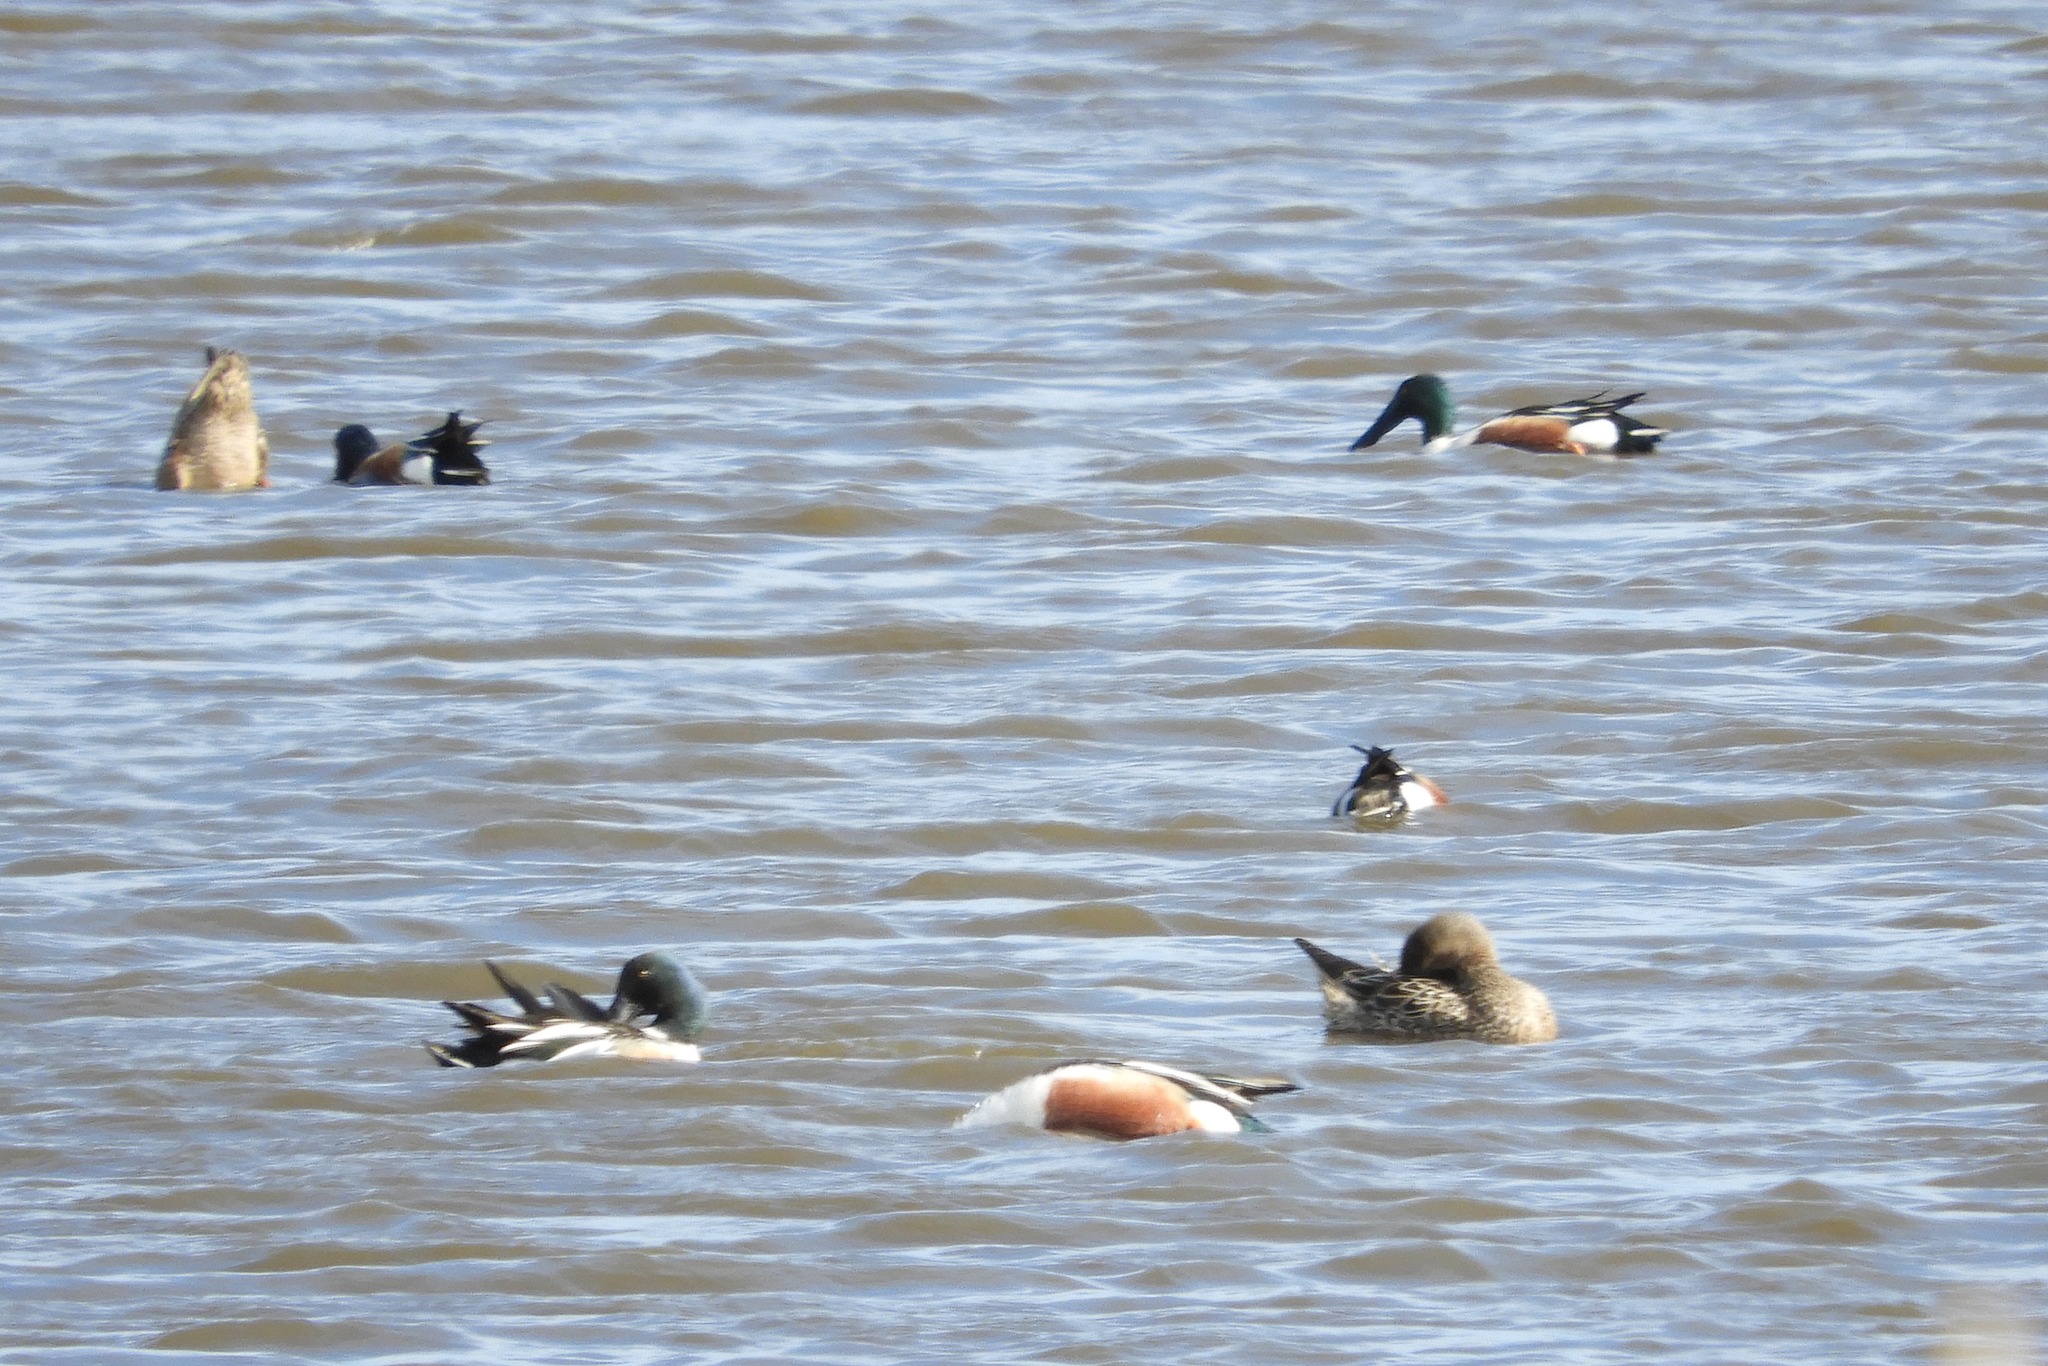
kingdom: Animalia
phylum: Chordata
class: Aves
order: Anseriformes
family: Anatidae
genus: Spatula
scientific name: Spatula clypeata
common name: Northern shoveler
